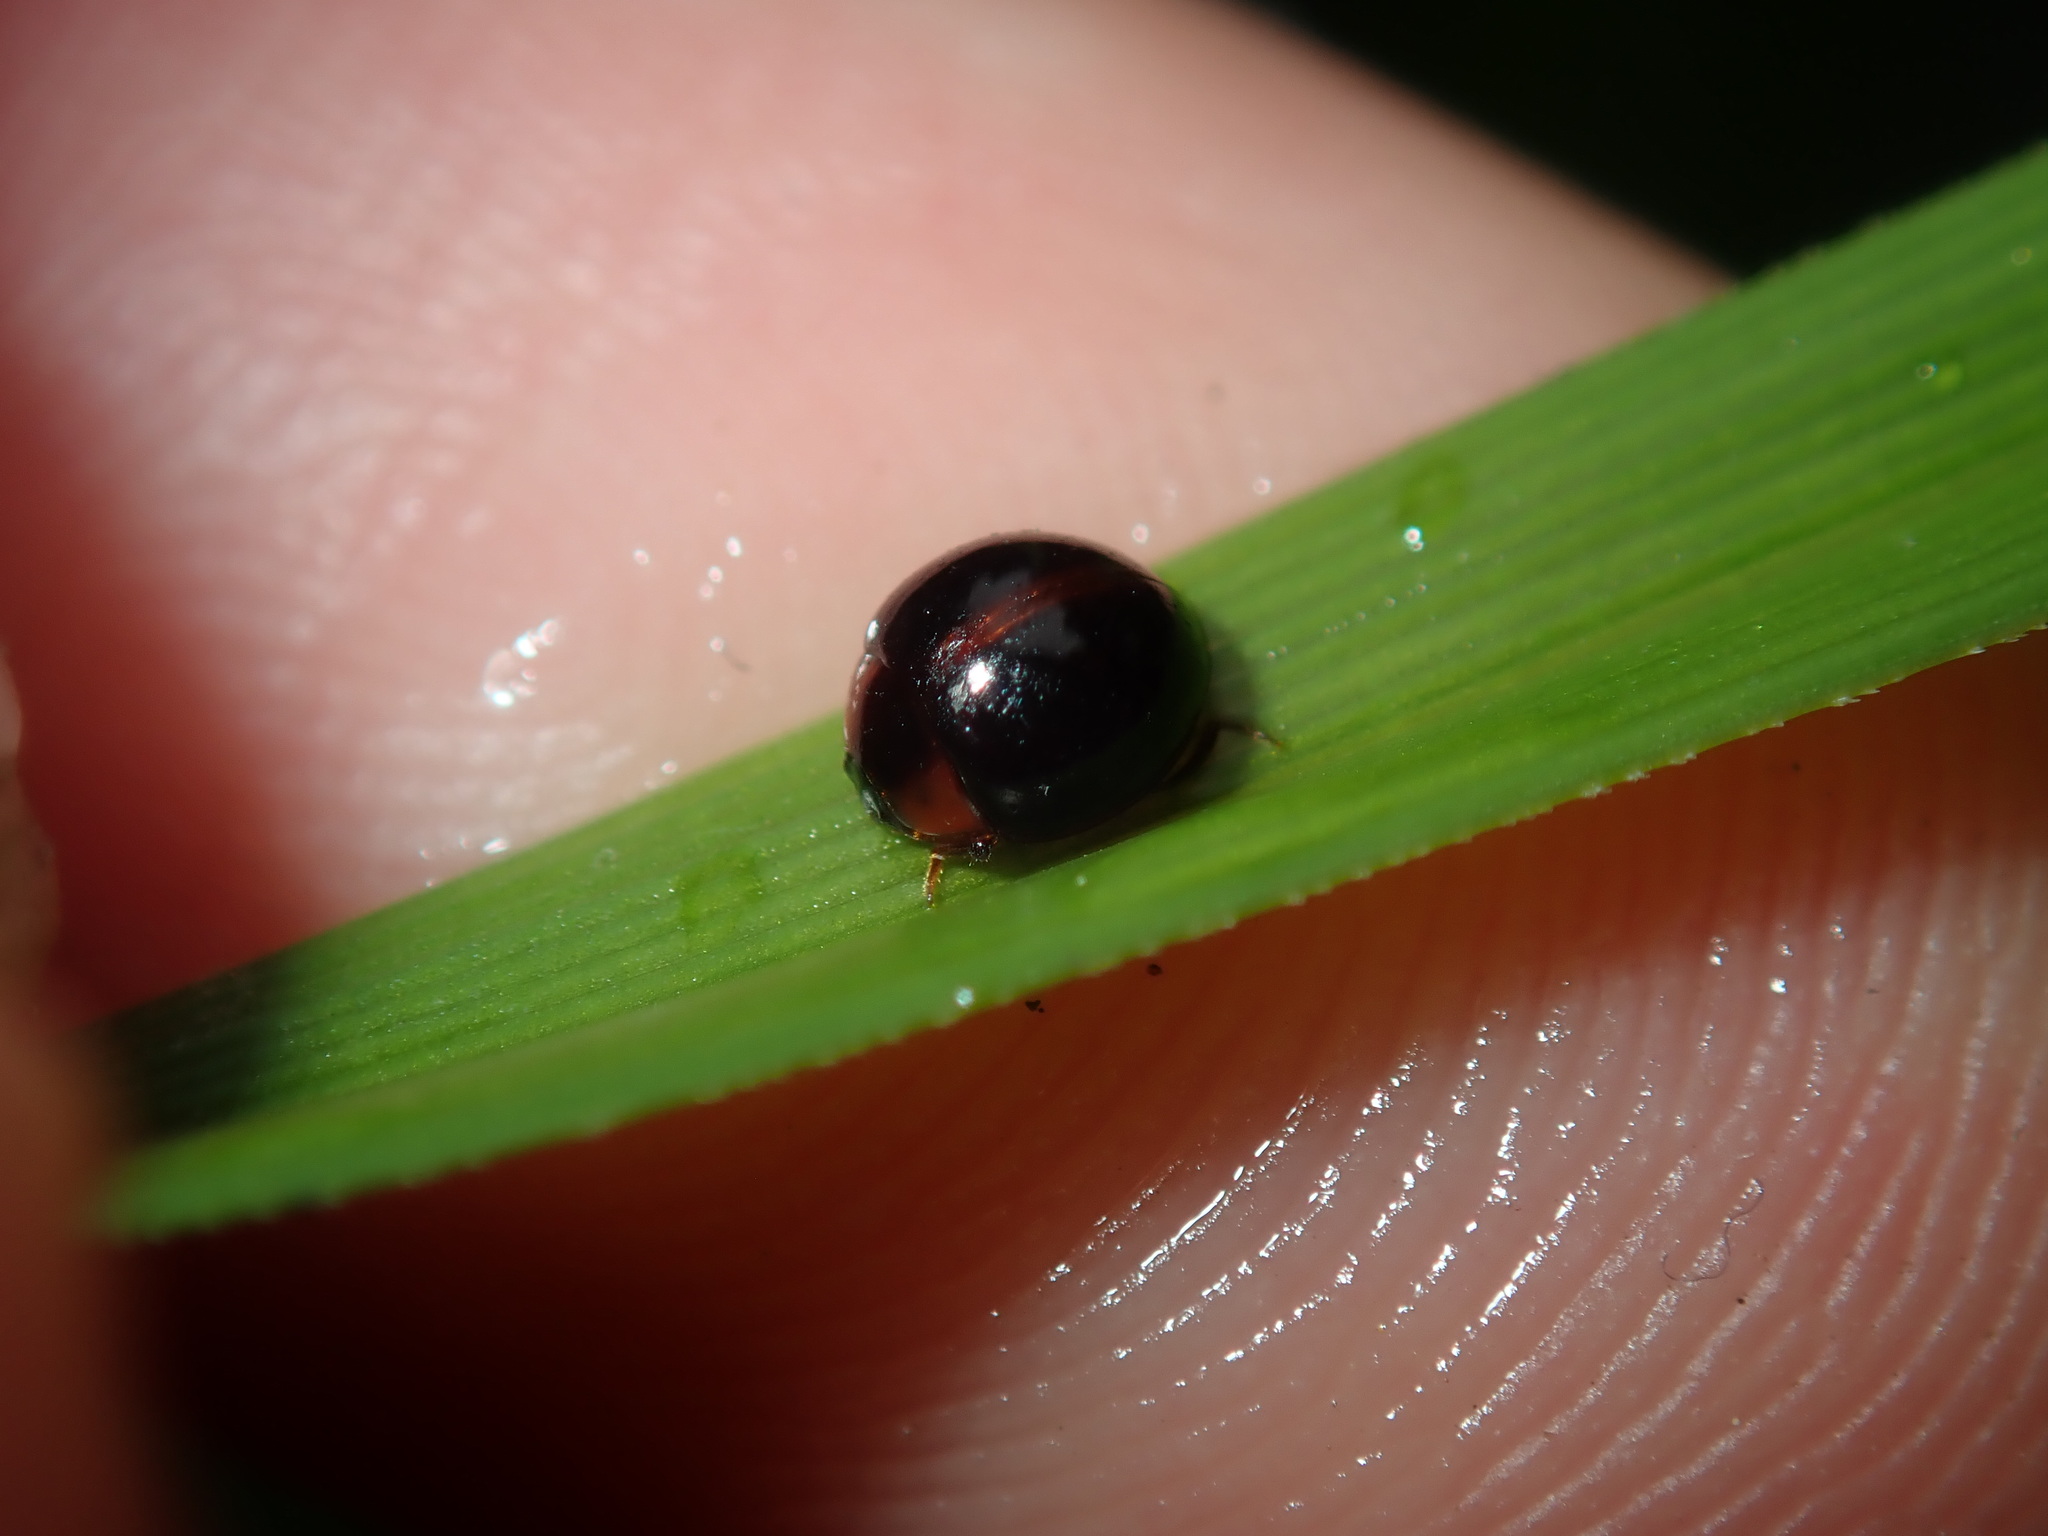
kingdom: Animalia
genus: Leiochrodes
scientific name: Leiochrodes
